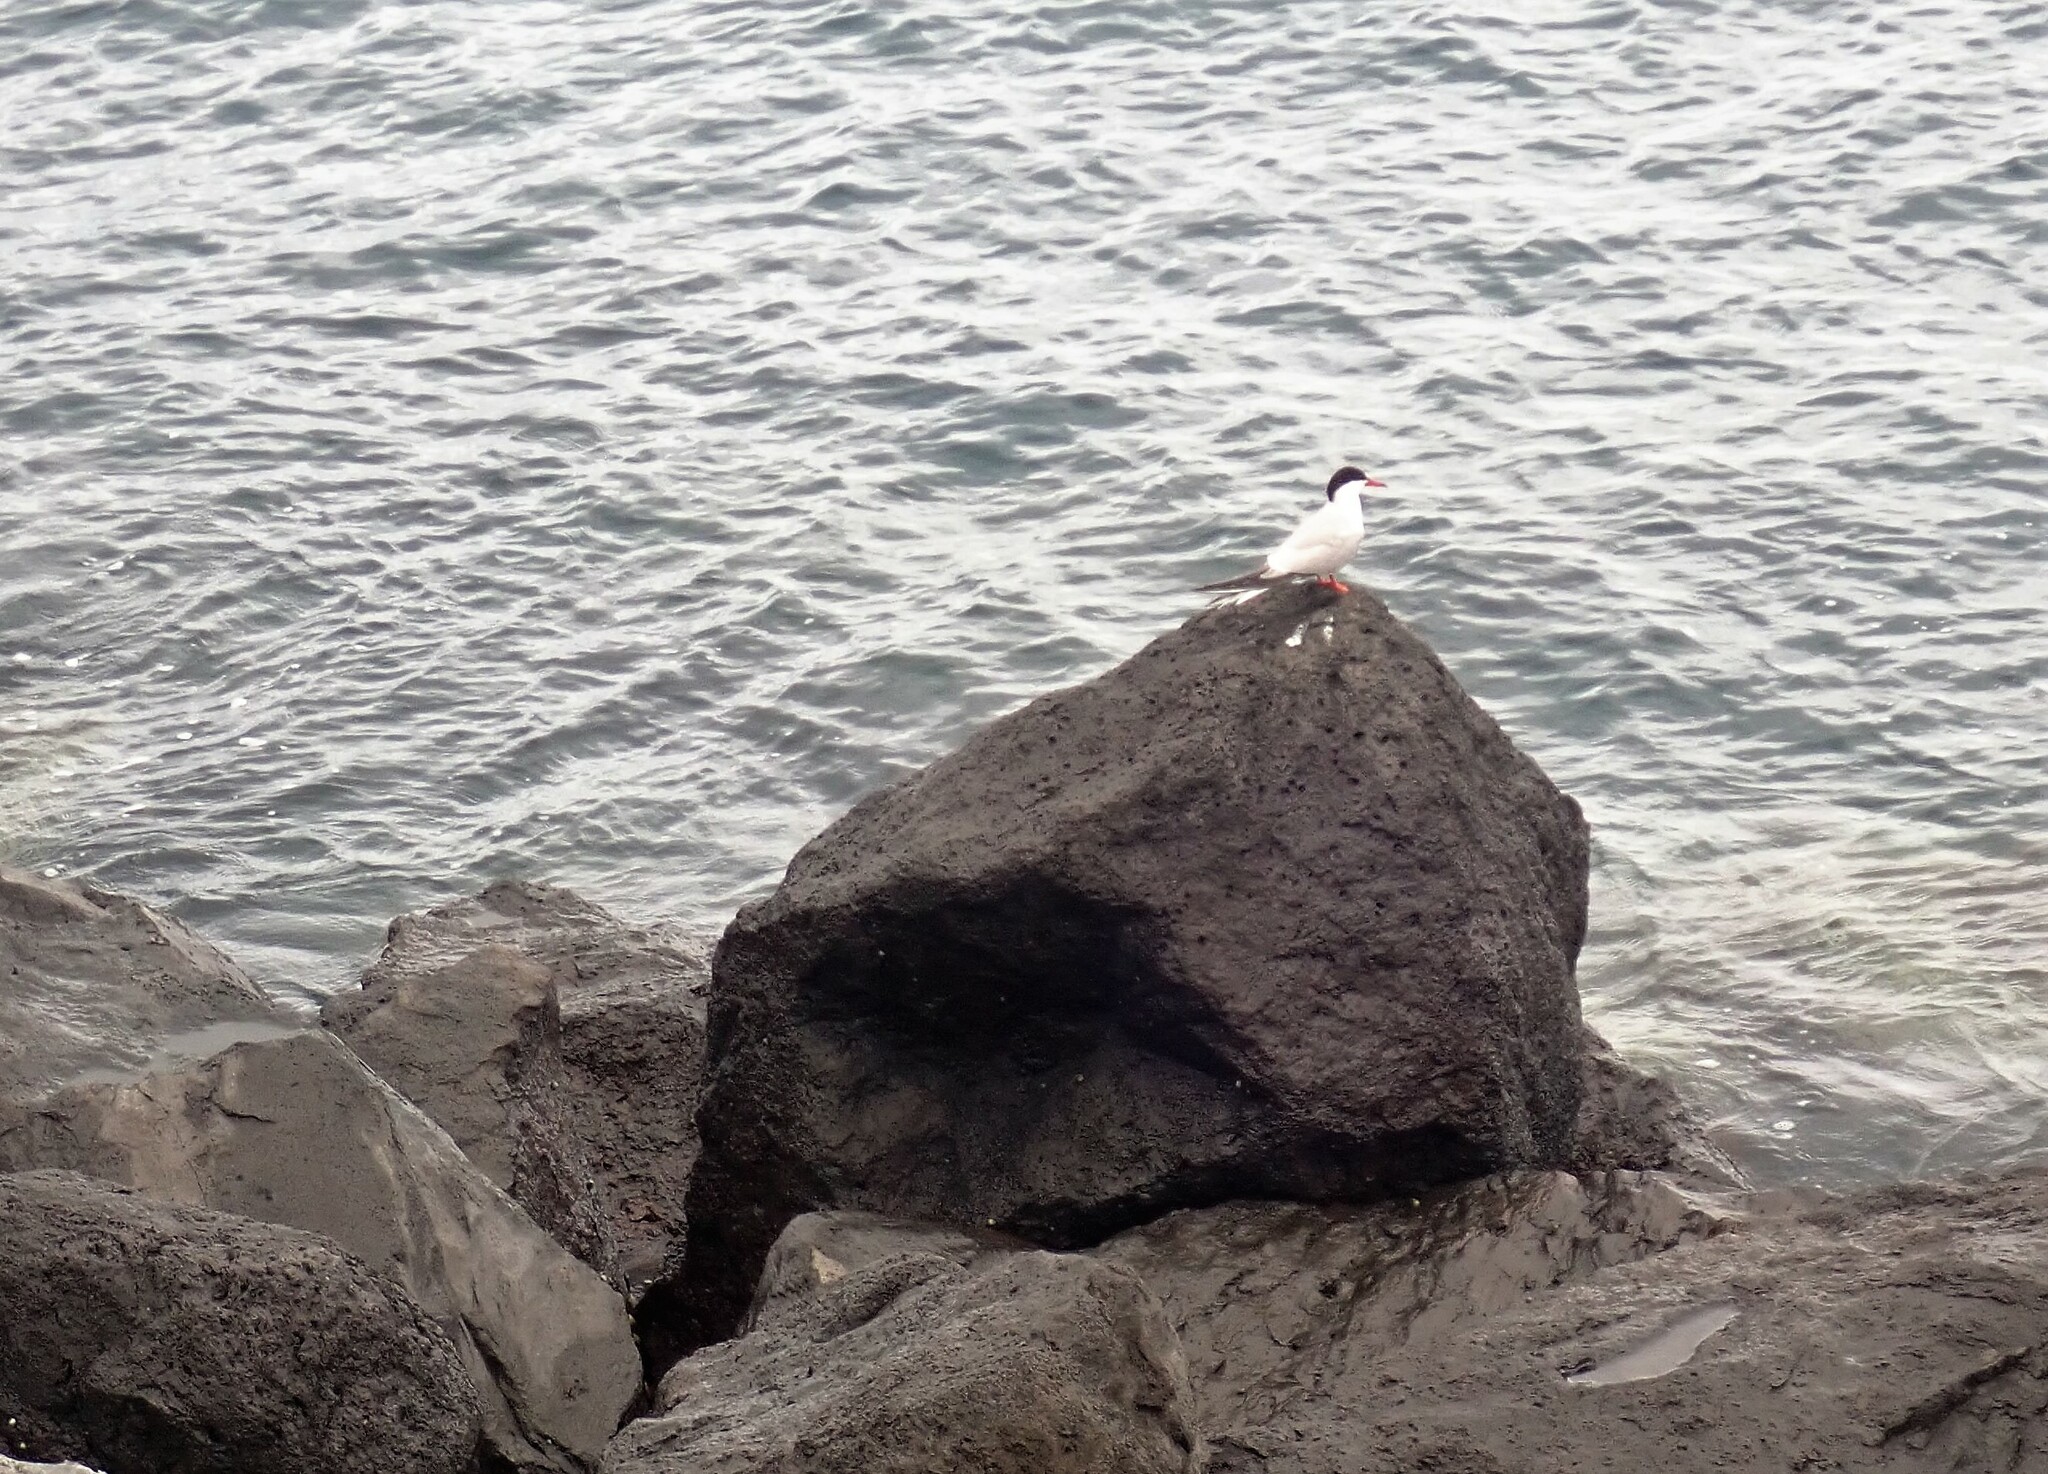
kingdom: Animalia
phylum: Chordata
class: Aves
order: Charadriiformes
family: Laridae
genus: Sterna
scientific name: Sterna hirundo
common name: Common tern
